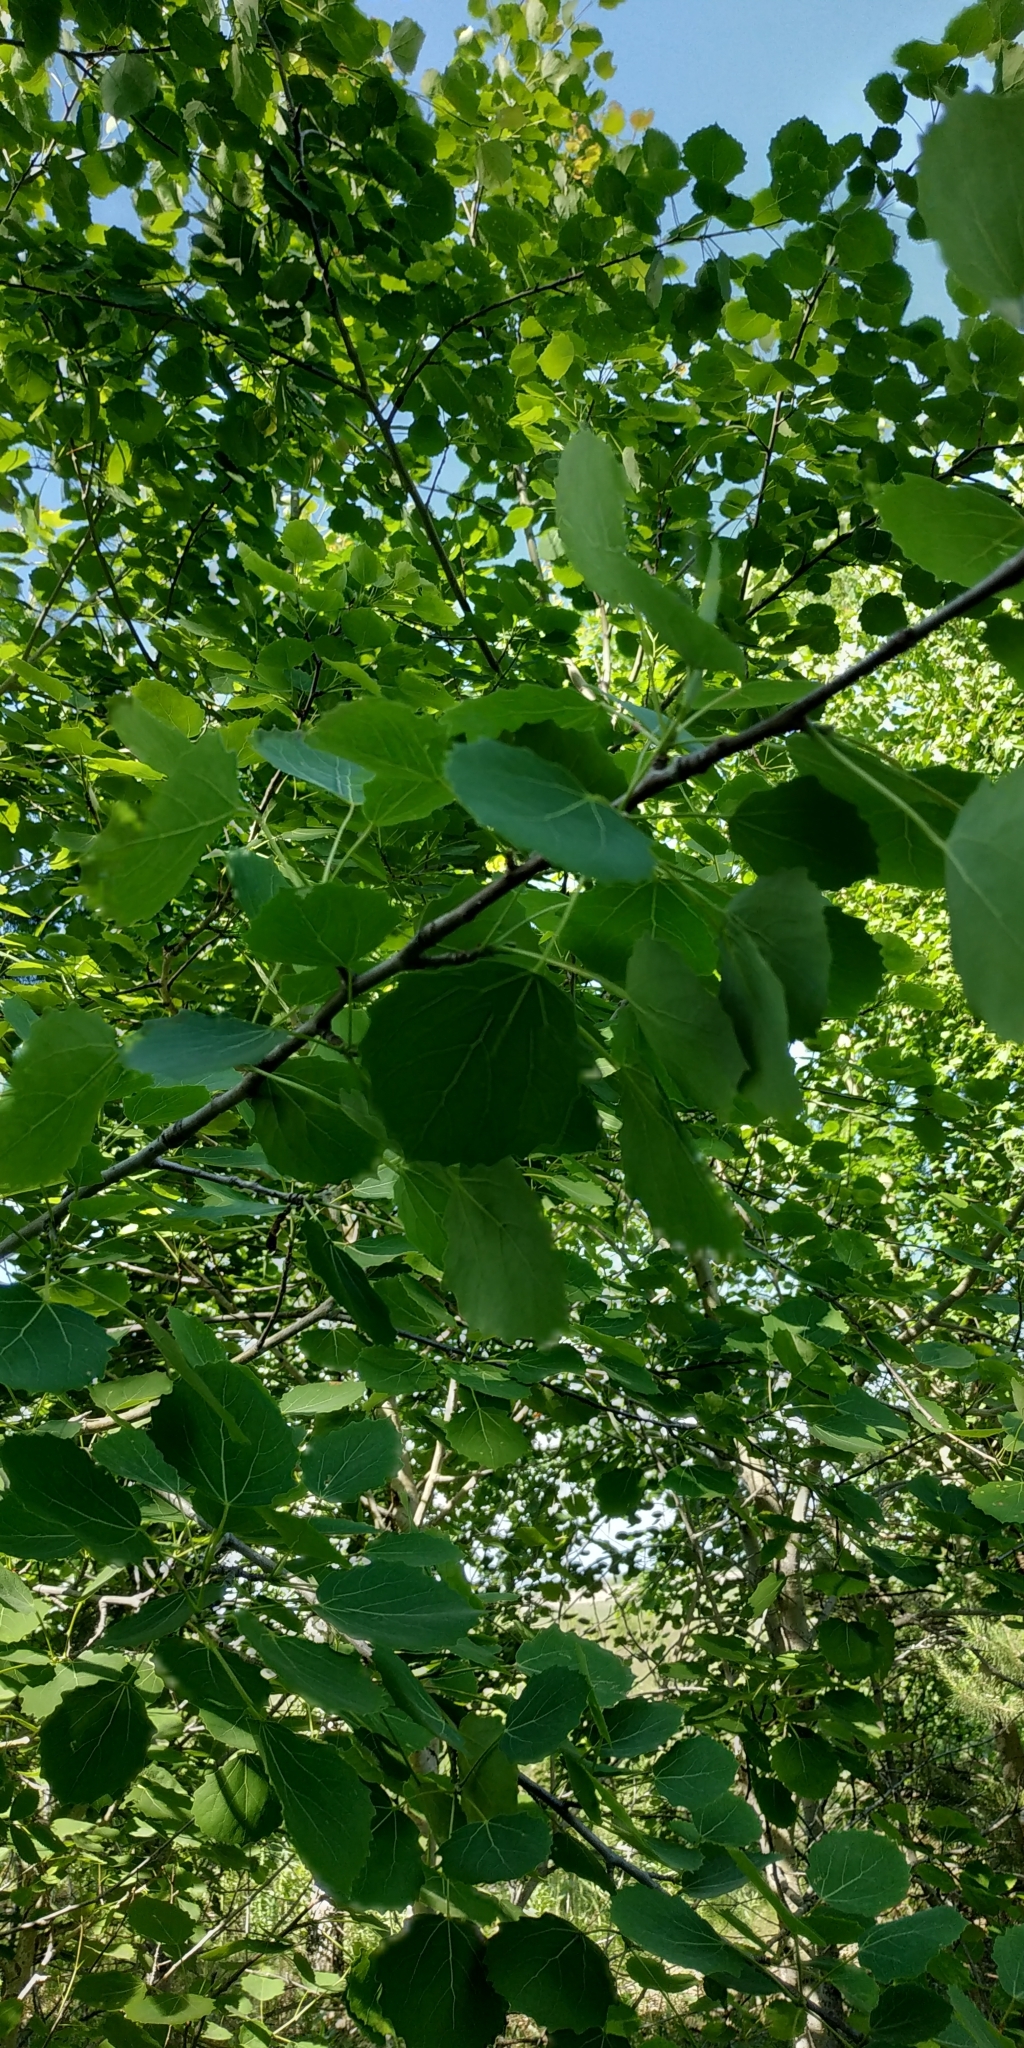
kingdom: Plantae
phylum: Tracheophyta
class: Magnoliopsida
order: Malpighiales
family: Salicaceae
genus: Populus
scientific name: Populus tremula
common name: European aspen
